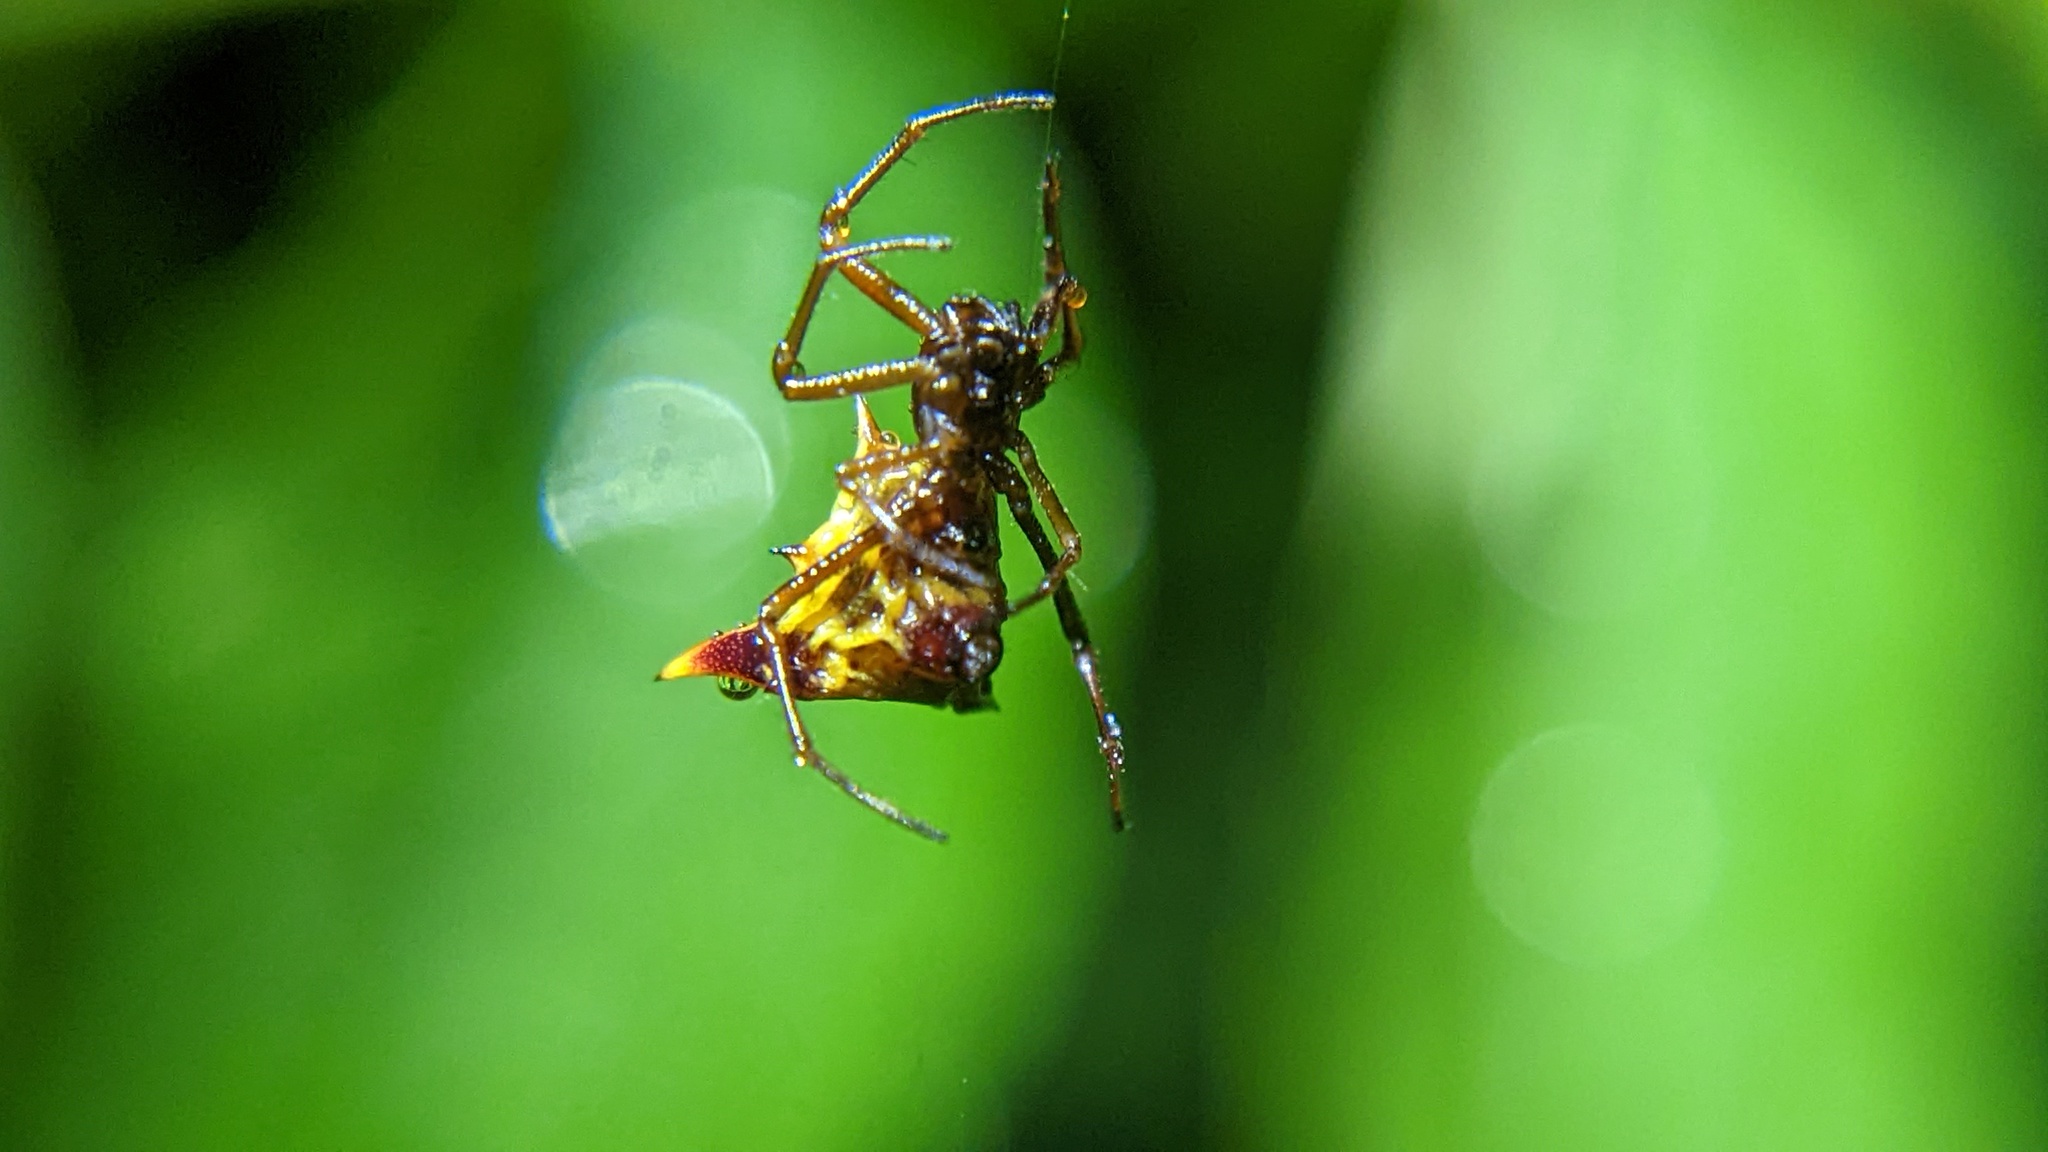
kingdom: Animalia
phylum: Arthropoda
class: Arachnida
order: Araneae
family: Araneidae
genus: Micrathena
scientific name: Micrathena flaveola
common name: Orb weavers
